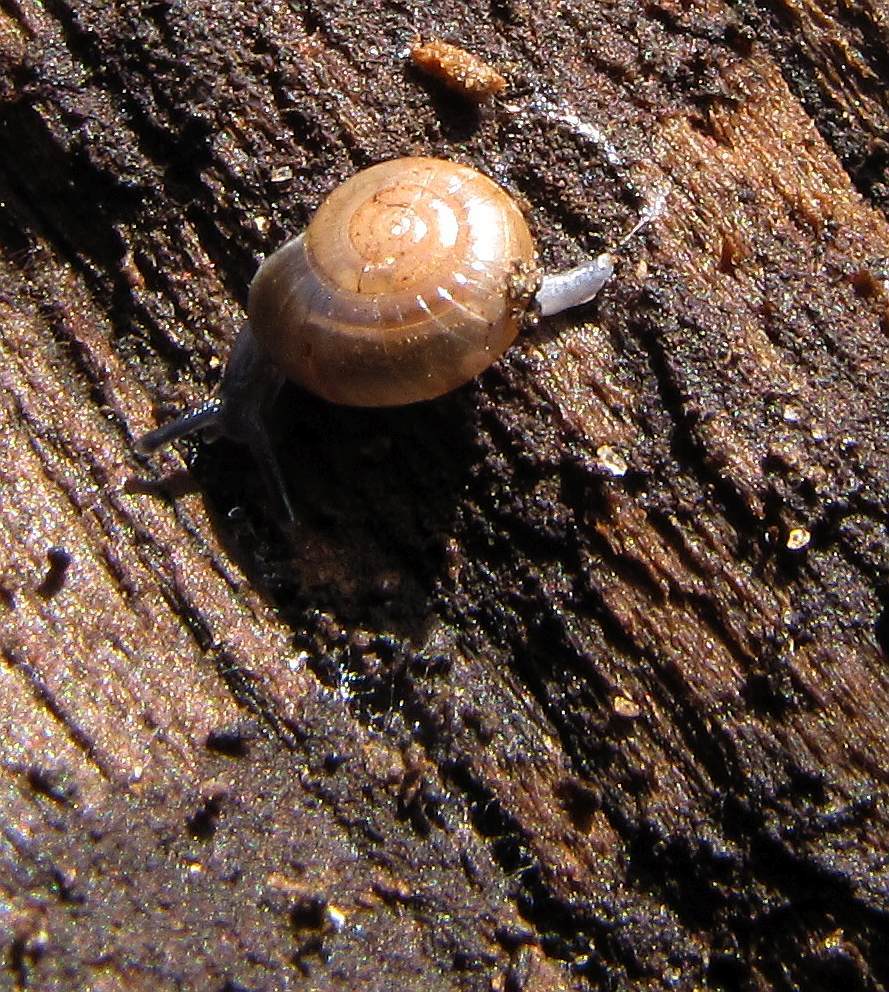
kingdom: Animalia
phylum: Mollusca
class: Gastropoda
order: Stylommatophora
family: Gastrodontidae
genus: Glyphyalinia
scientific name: Glyphyalinia indentata
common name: Carved glyph
